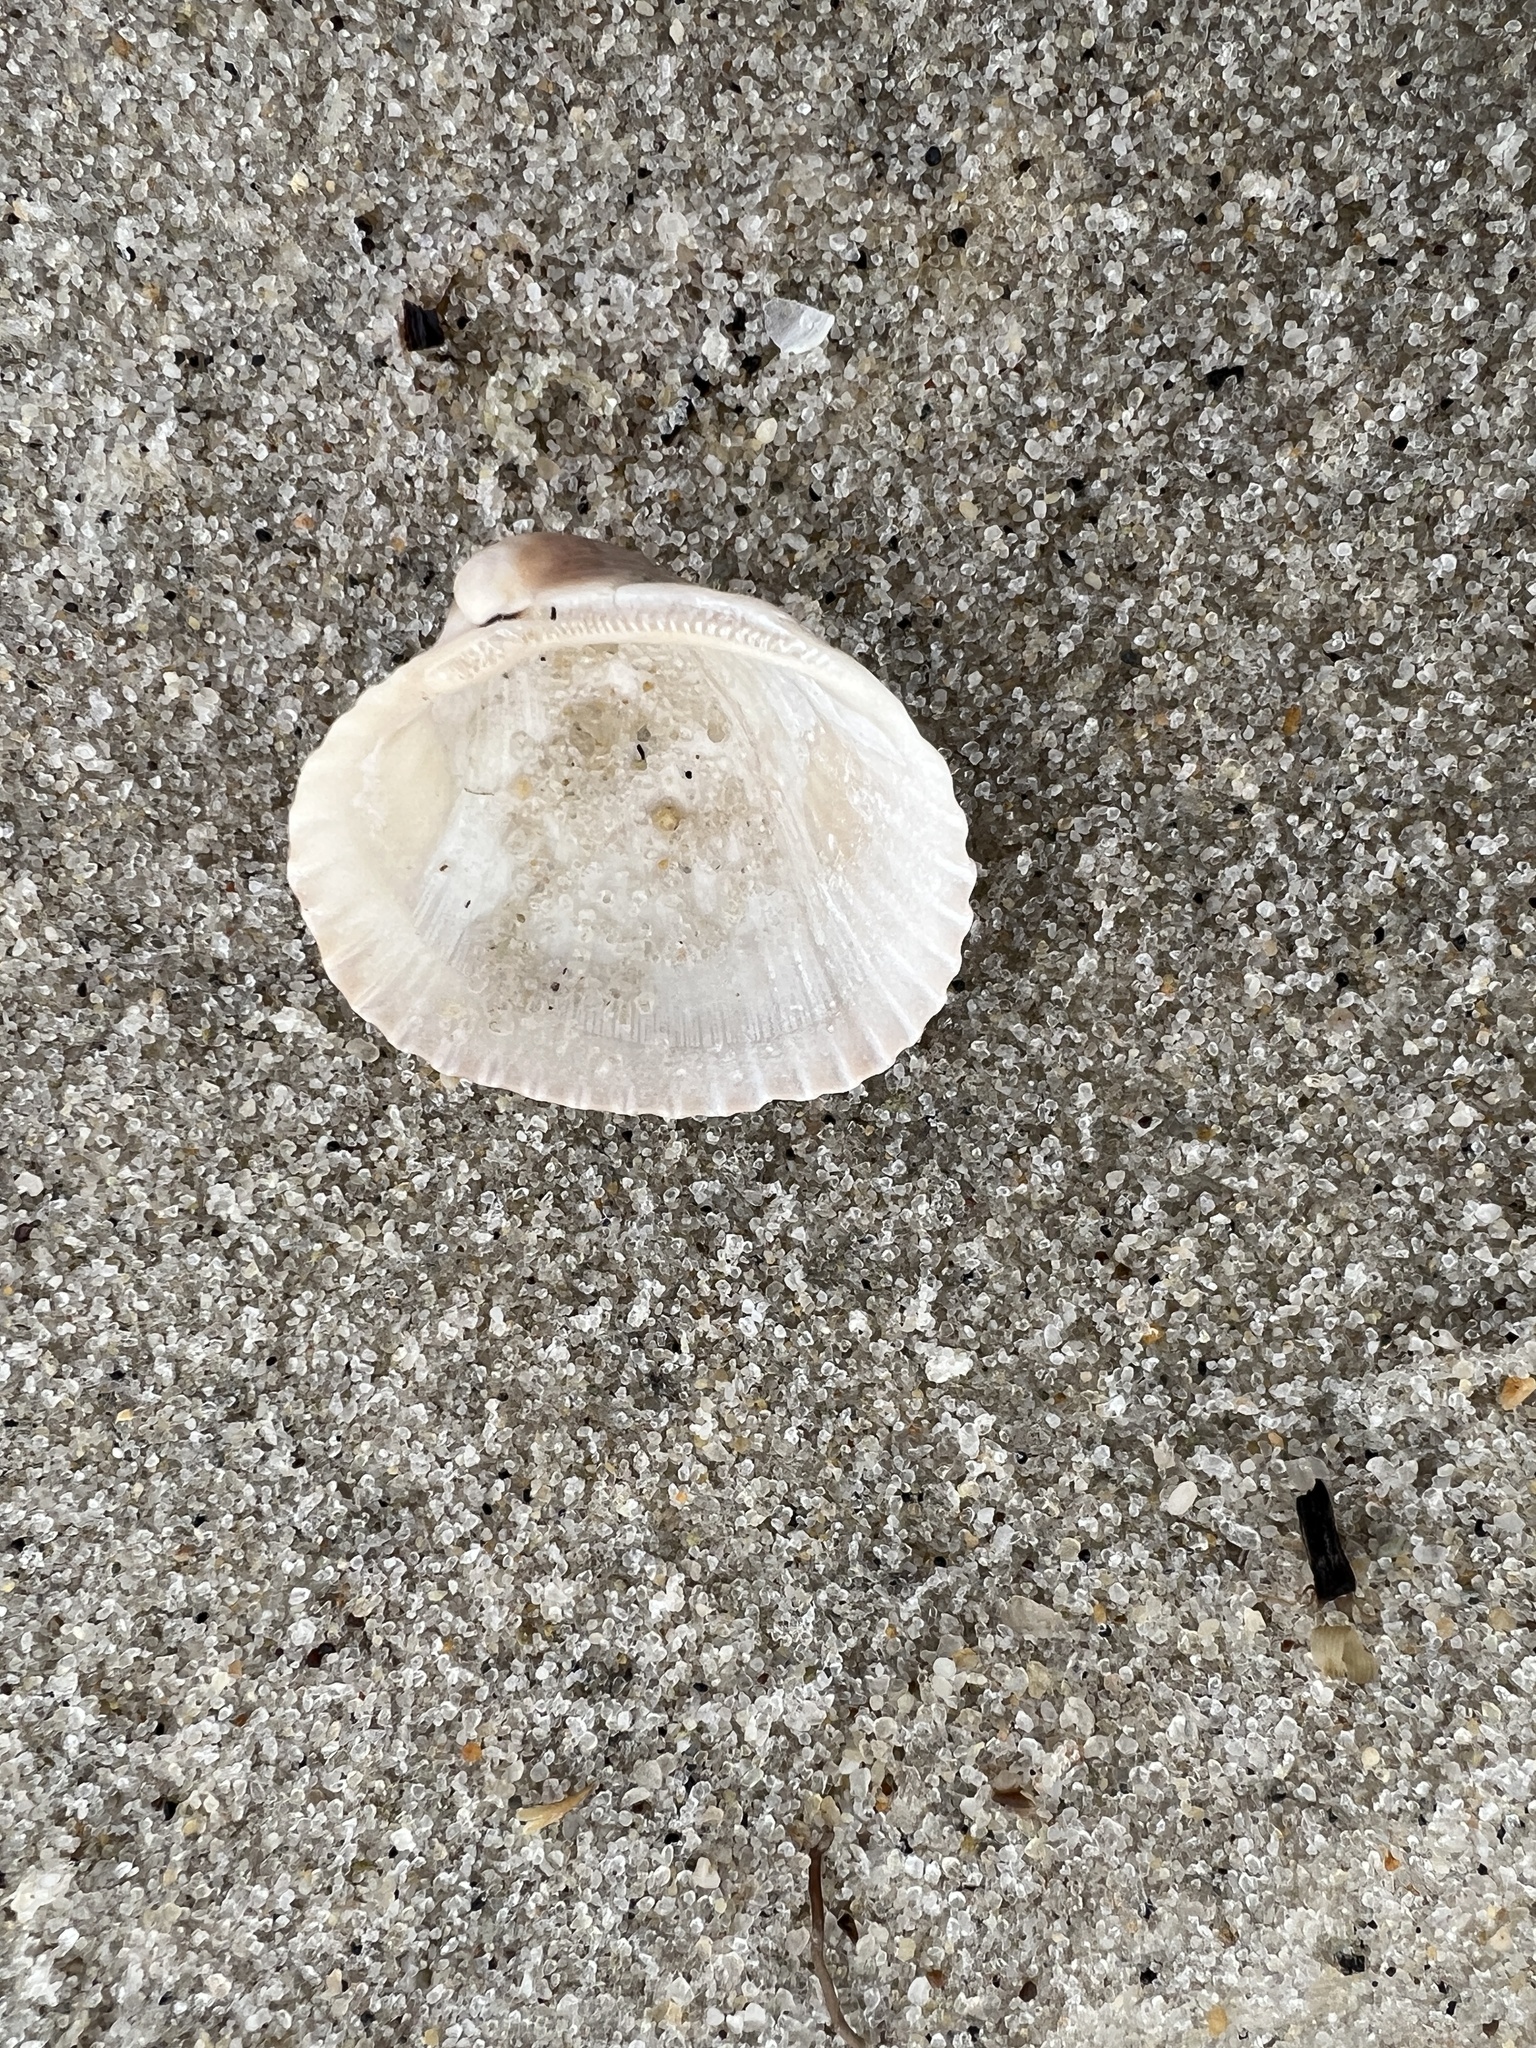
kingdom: Animalia
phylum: Mollusca
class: Bivalvia
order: Arcida
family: Arcidae
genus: Lunarca
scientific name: Lunarca ovalis
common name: Blood ark
